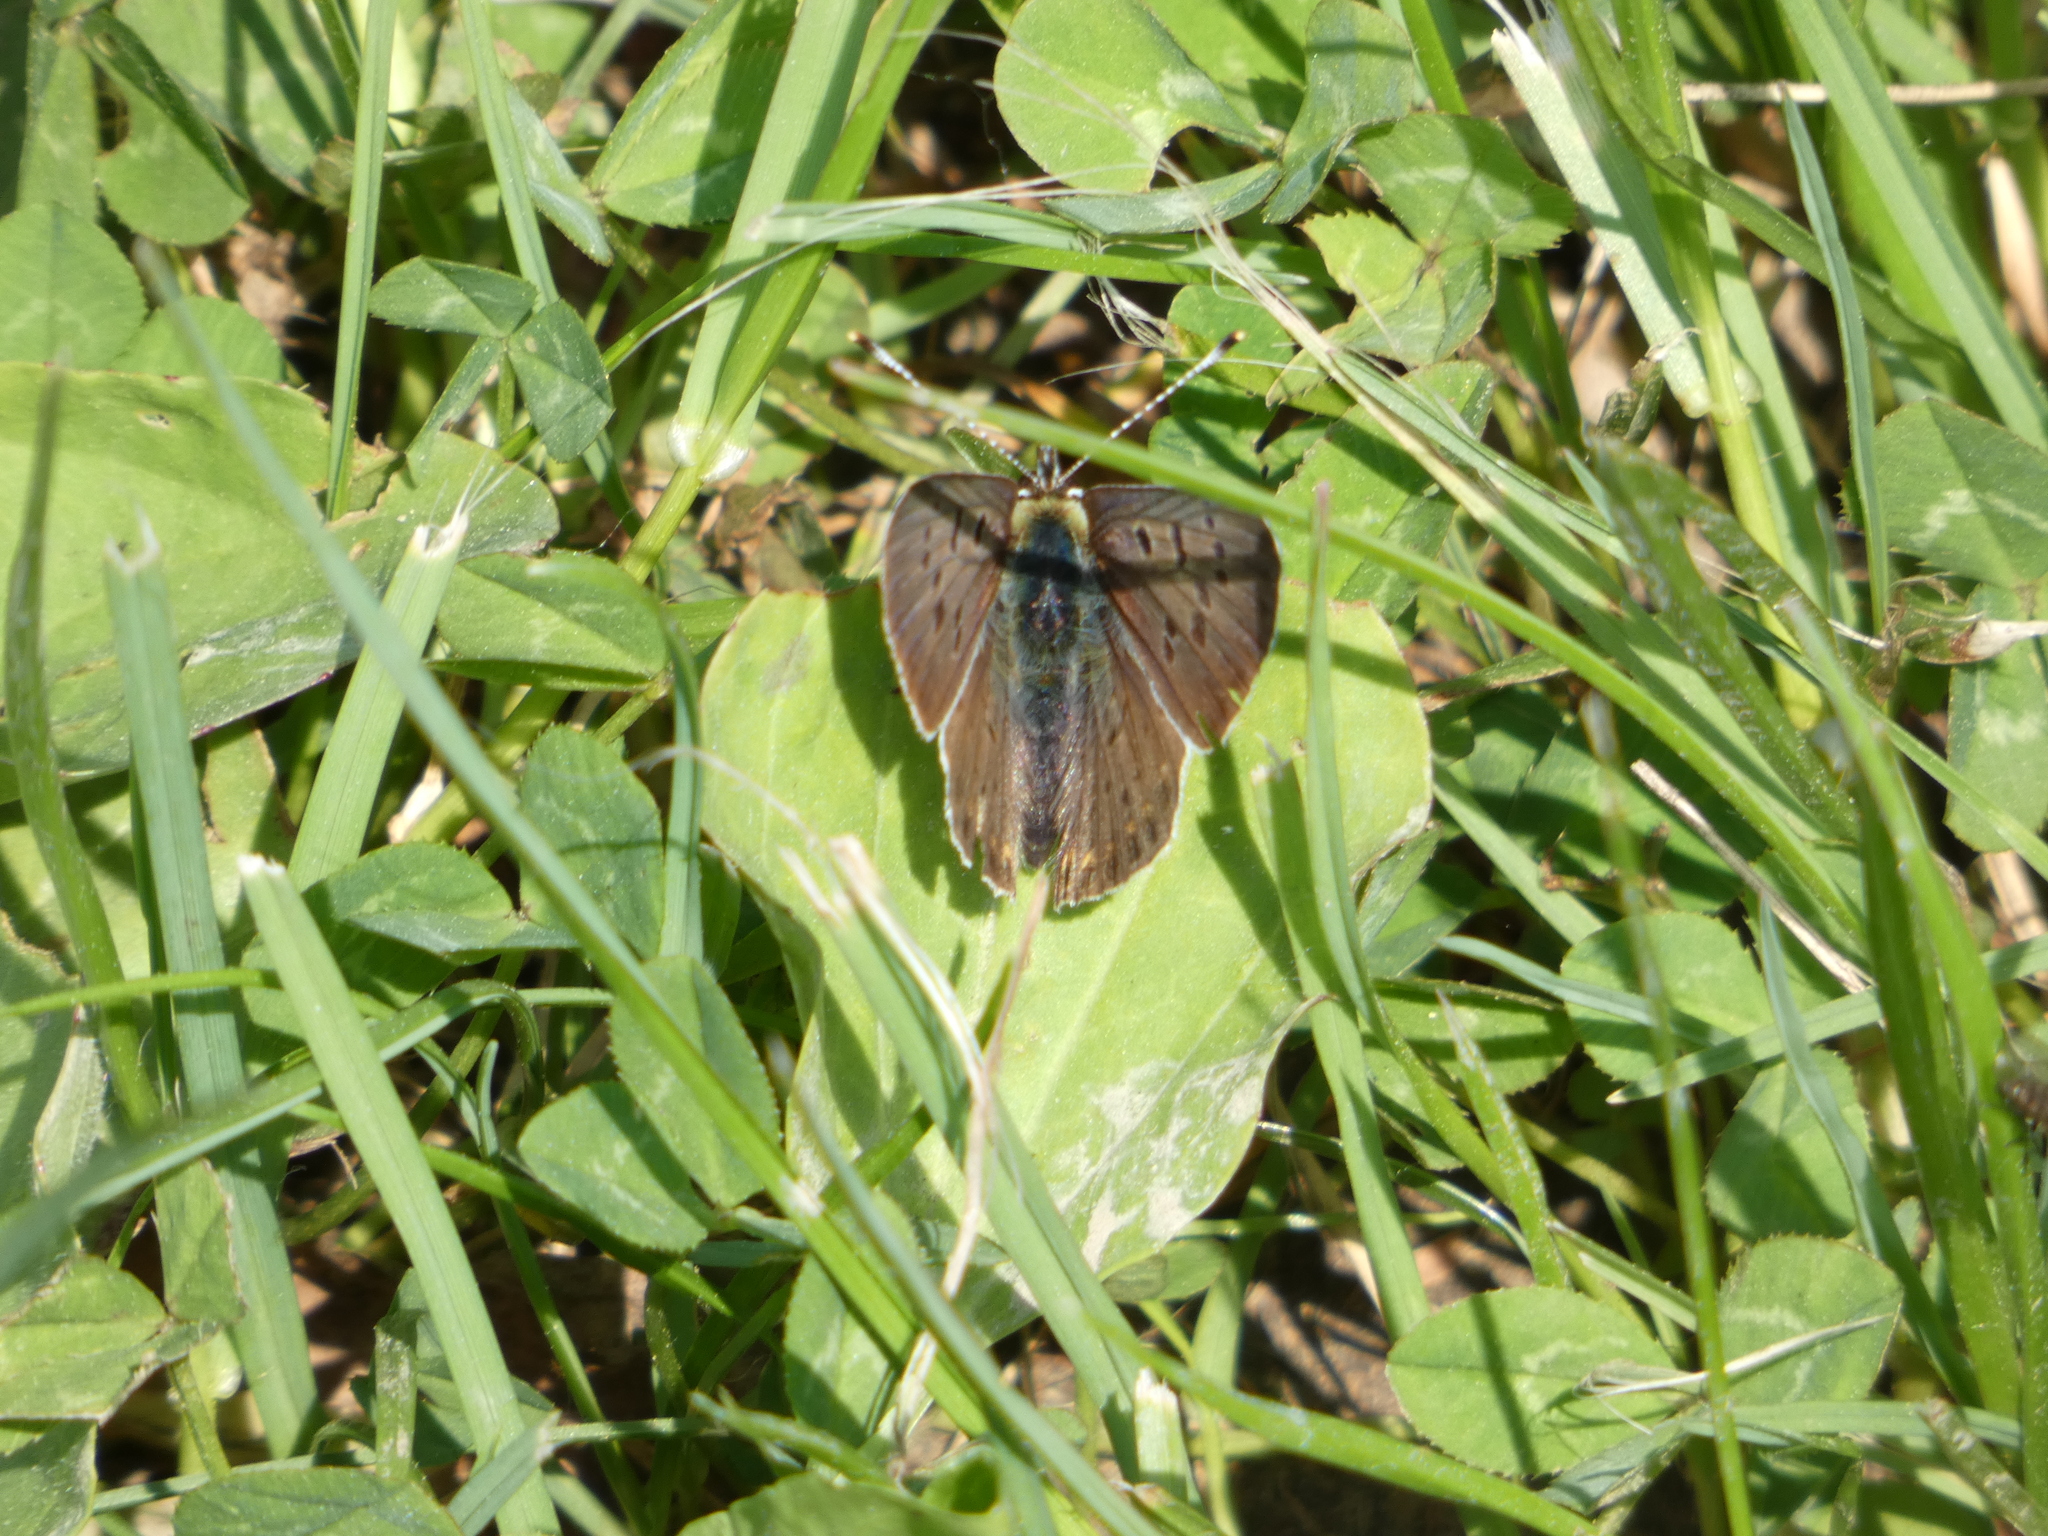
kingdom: Animalia
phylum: Arthropoda
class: Insecta
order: Lepidoptera
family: Lycaenidae
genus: Loweia
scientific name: Loweia tityrus
